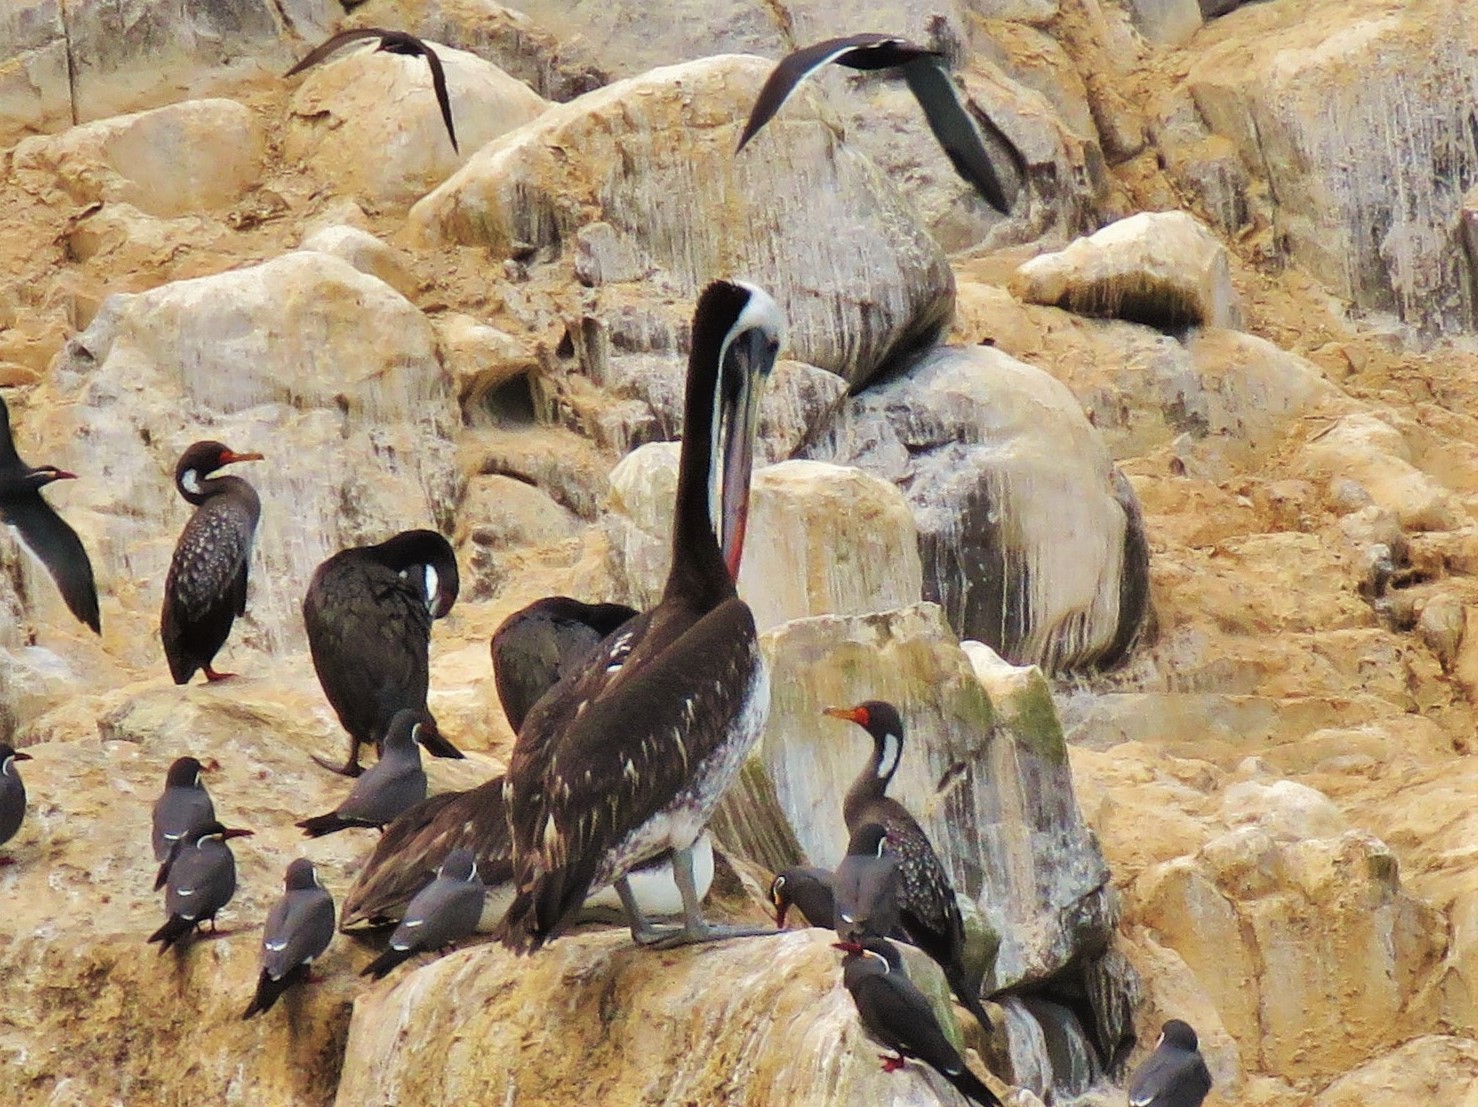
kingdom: Animalia
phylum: Chordata
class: Aves
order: Pelecaniformes
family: Pelecanidae
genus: Pelecanus
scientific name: Pelecanus thagus
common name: Peruvian pelican
